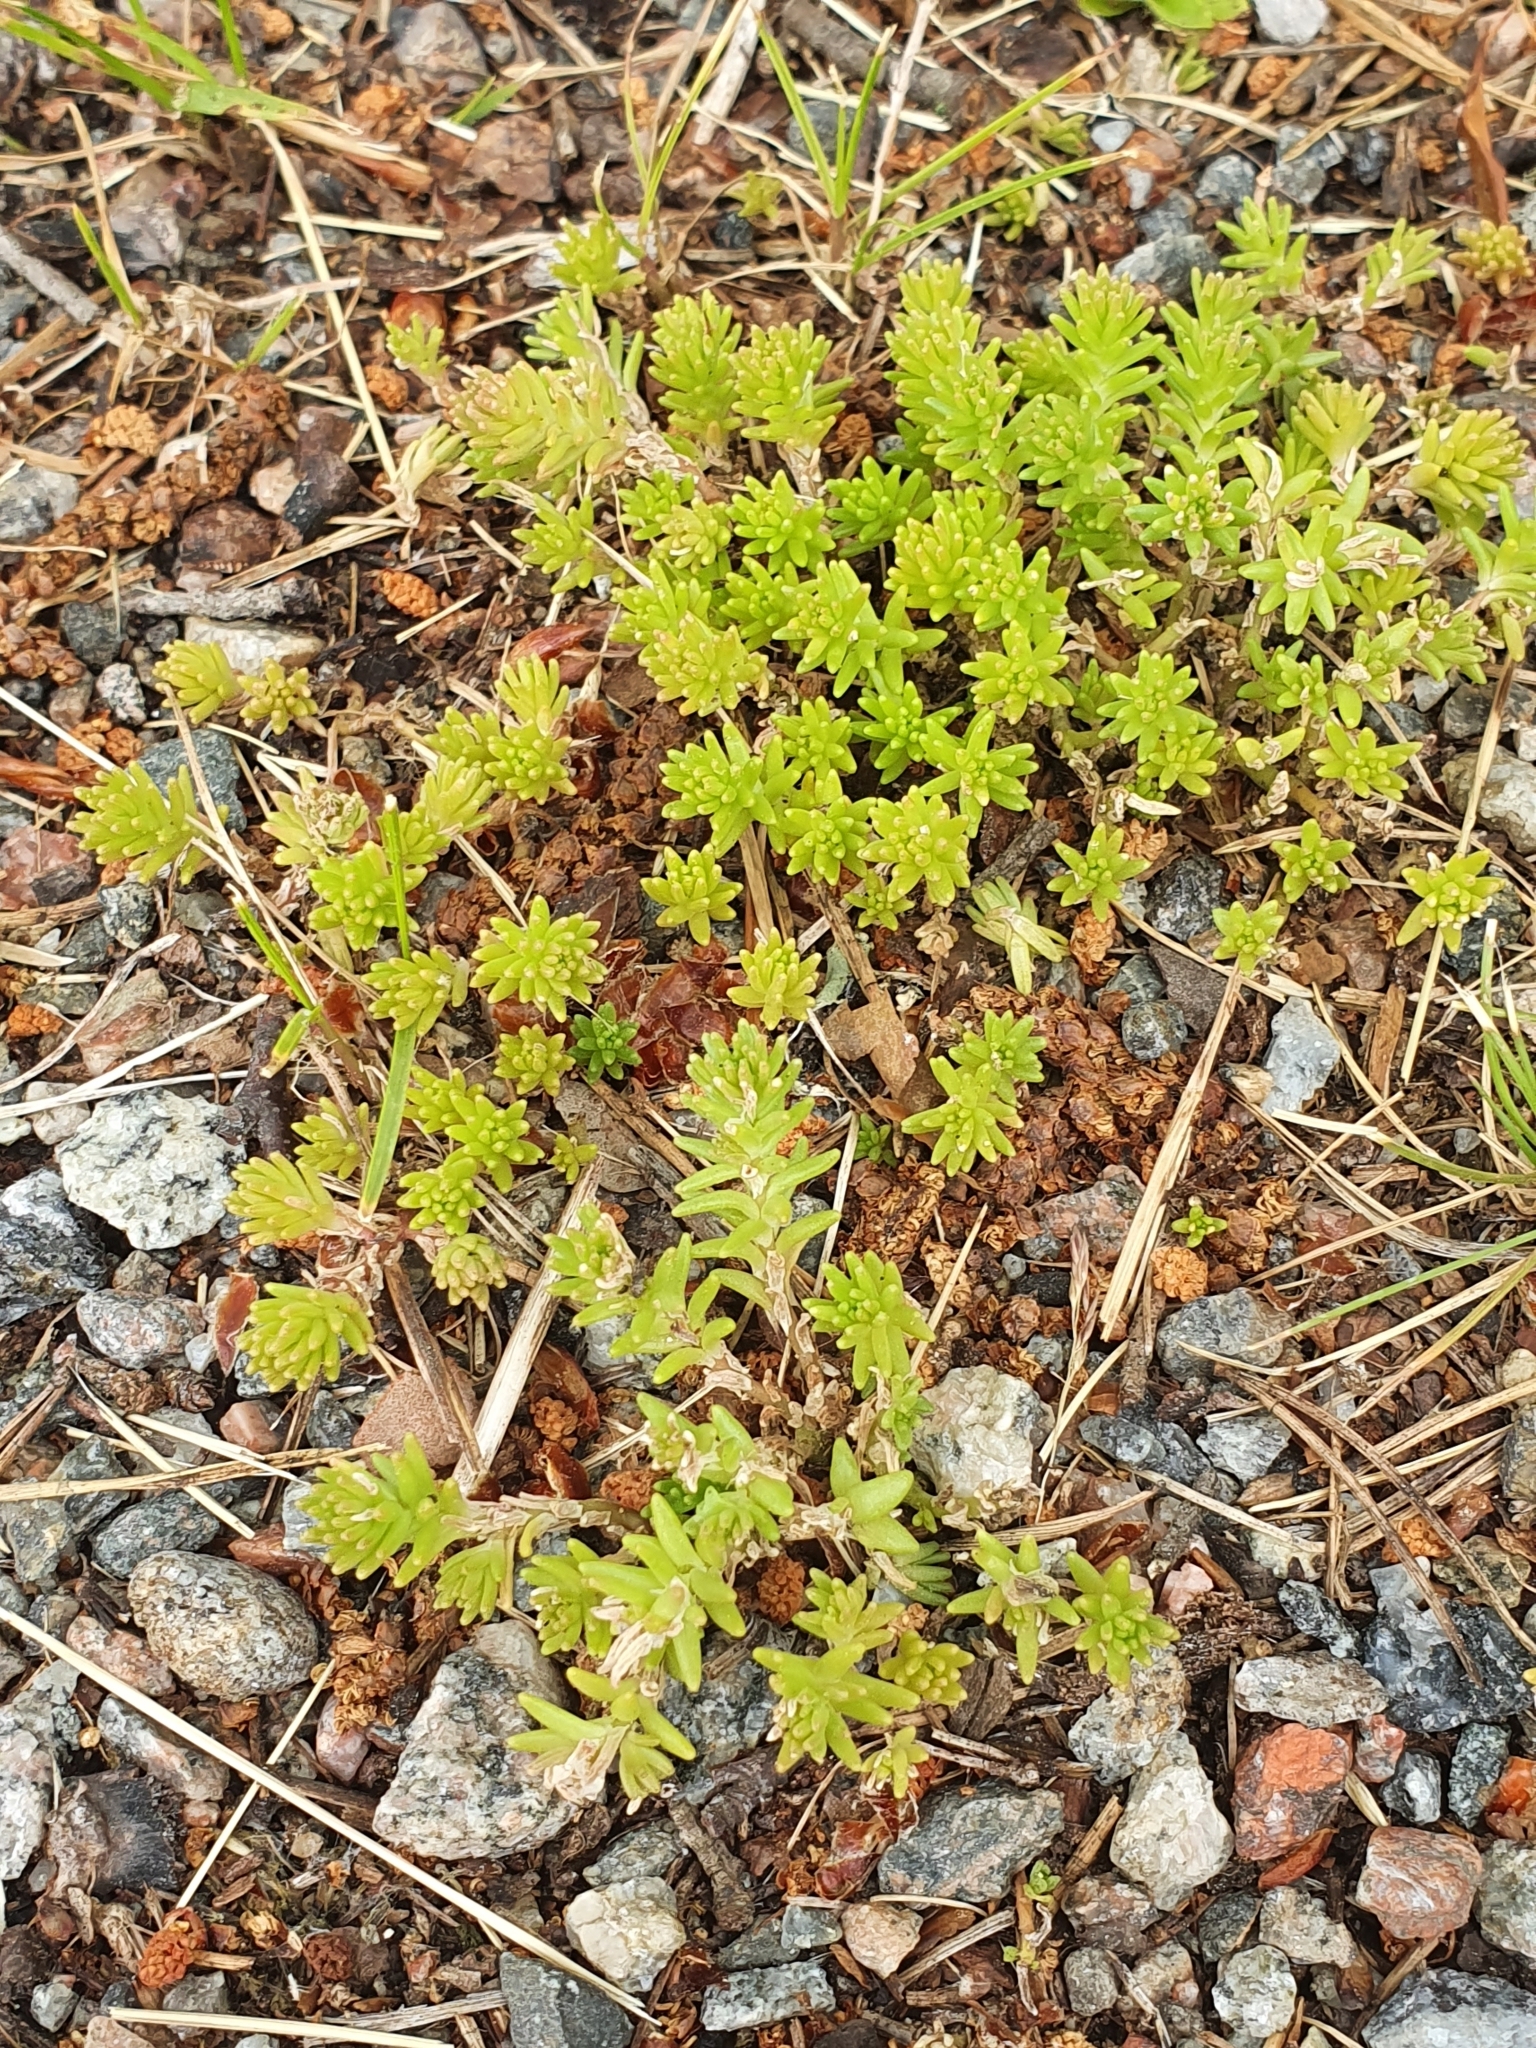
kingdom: Plantae
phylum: Tracheophyta
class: Magnoliopsida
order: Saxifragales
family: Crassulaceae
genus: Sedum
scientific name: Sedum sexangulare
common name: Tasteless stonecrop
